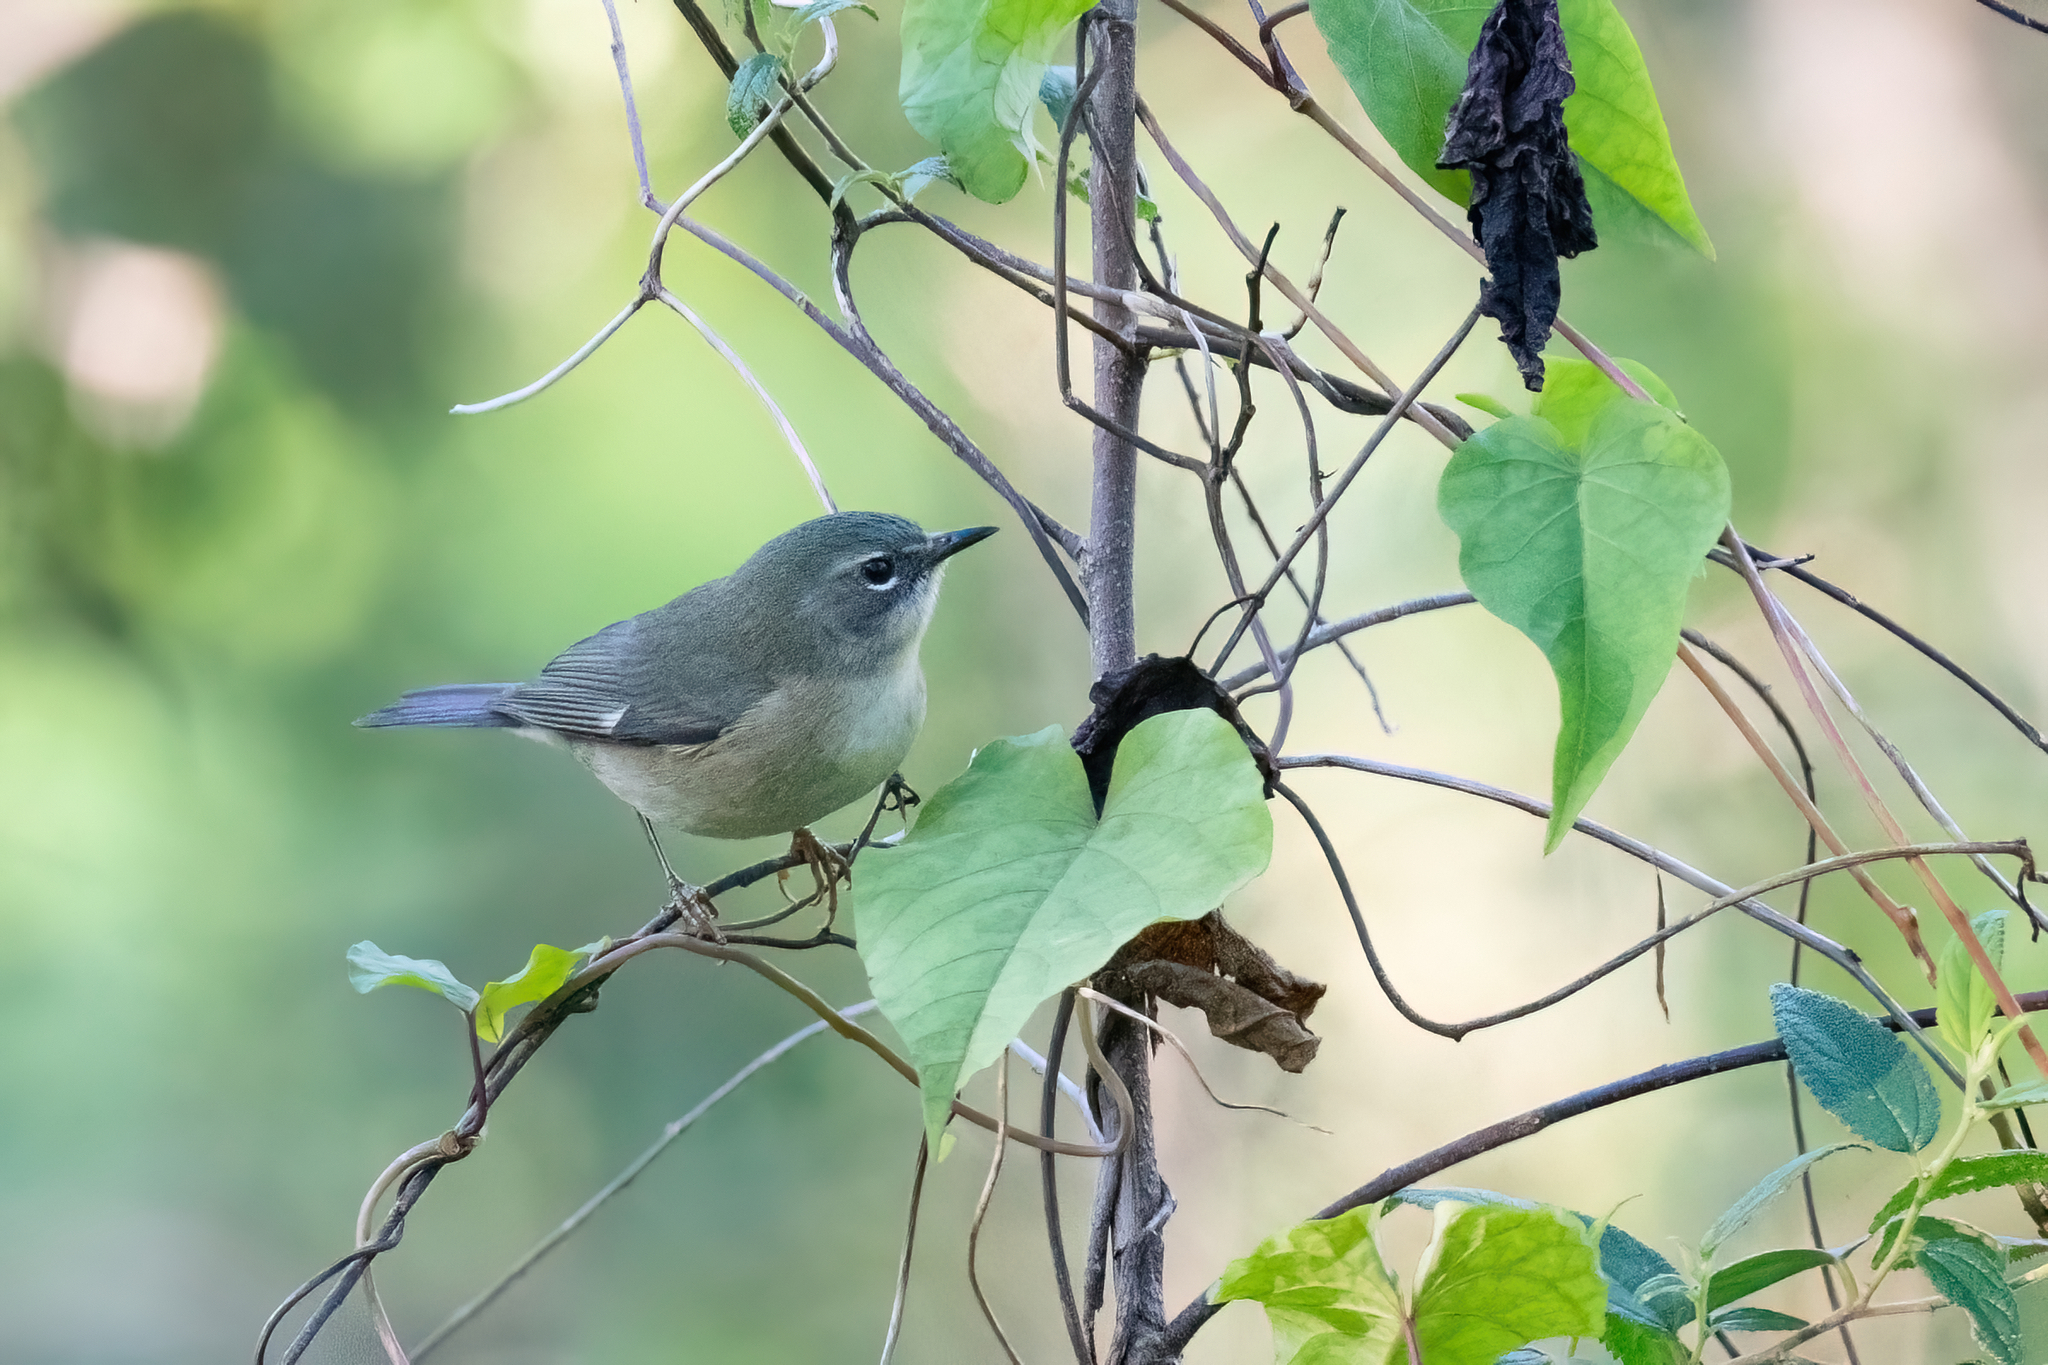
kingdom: Animalia
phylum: Chordata
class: Aves
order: Passeriformes
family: Parulidae
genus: Setophaga
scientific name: Setophaga caerulescens
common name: Black-throated blue warbler
